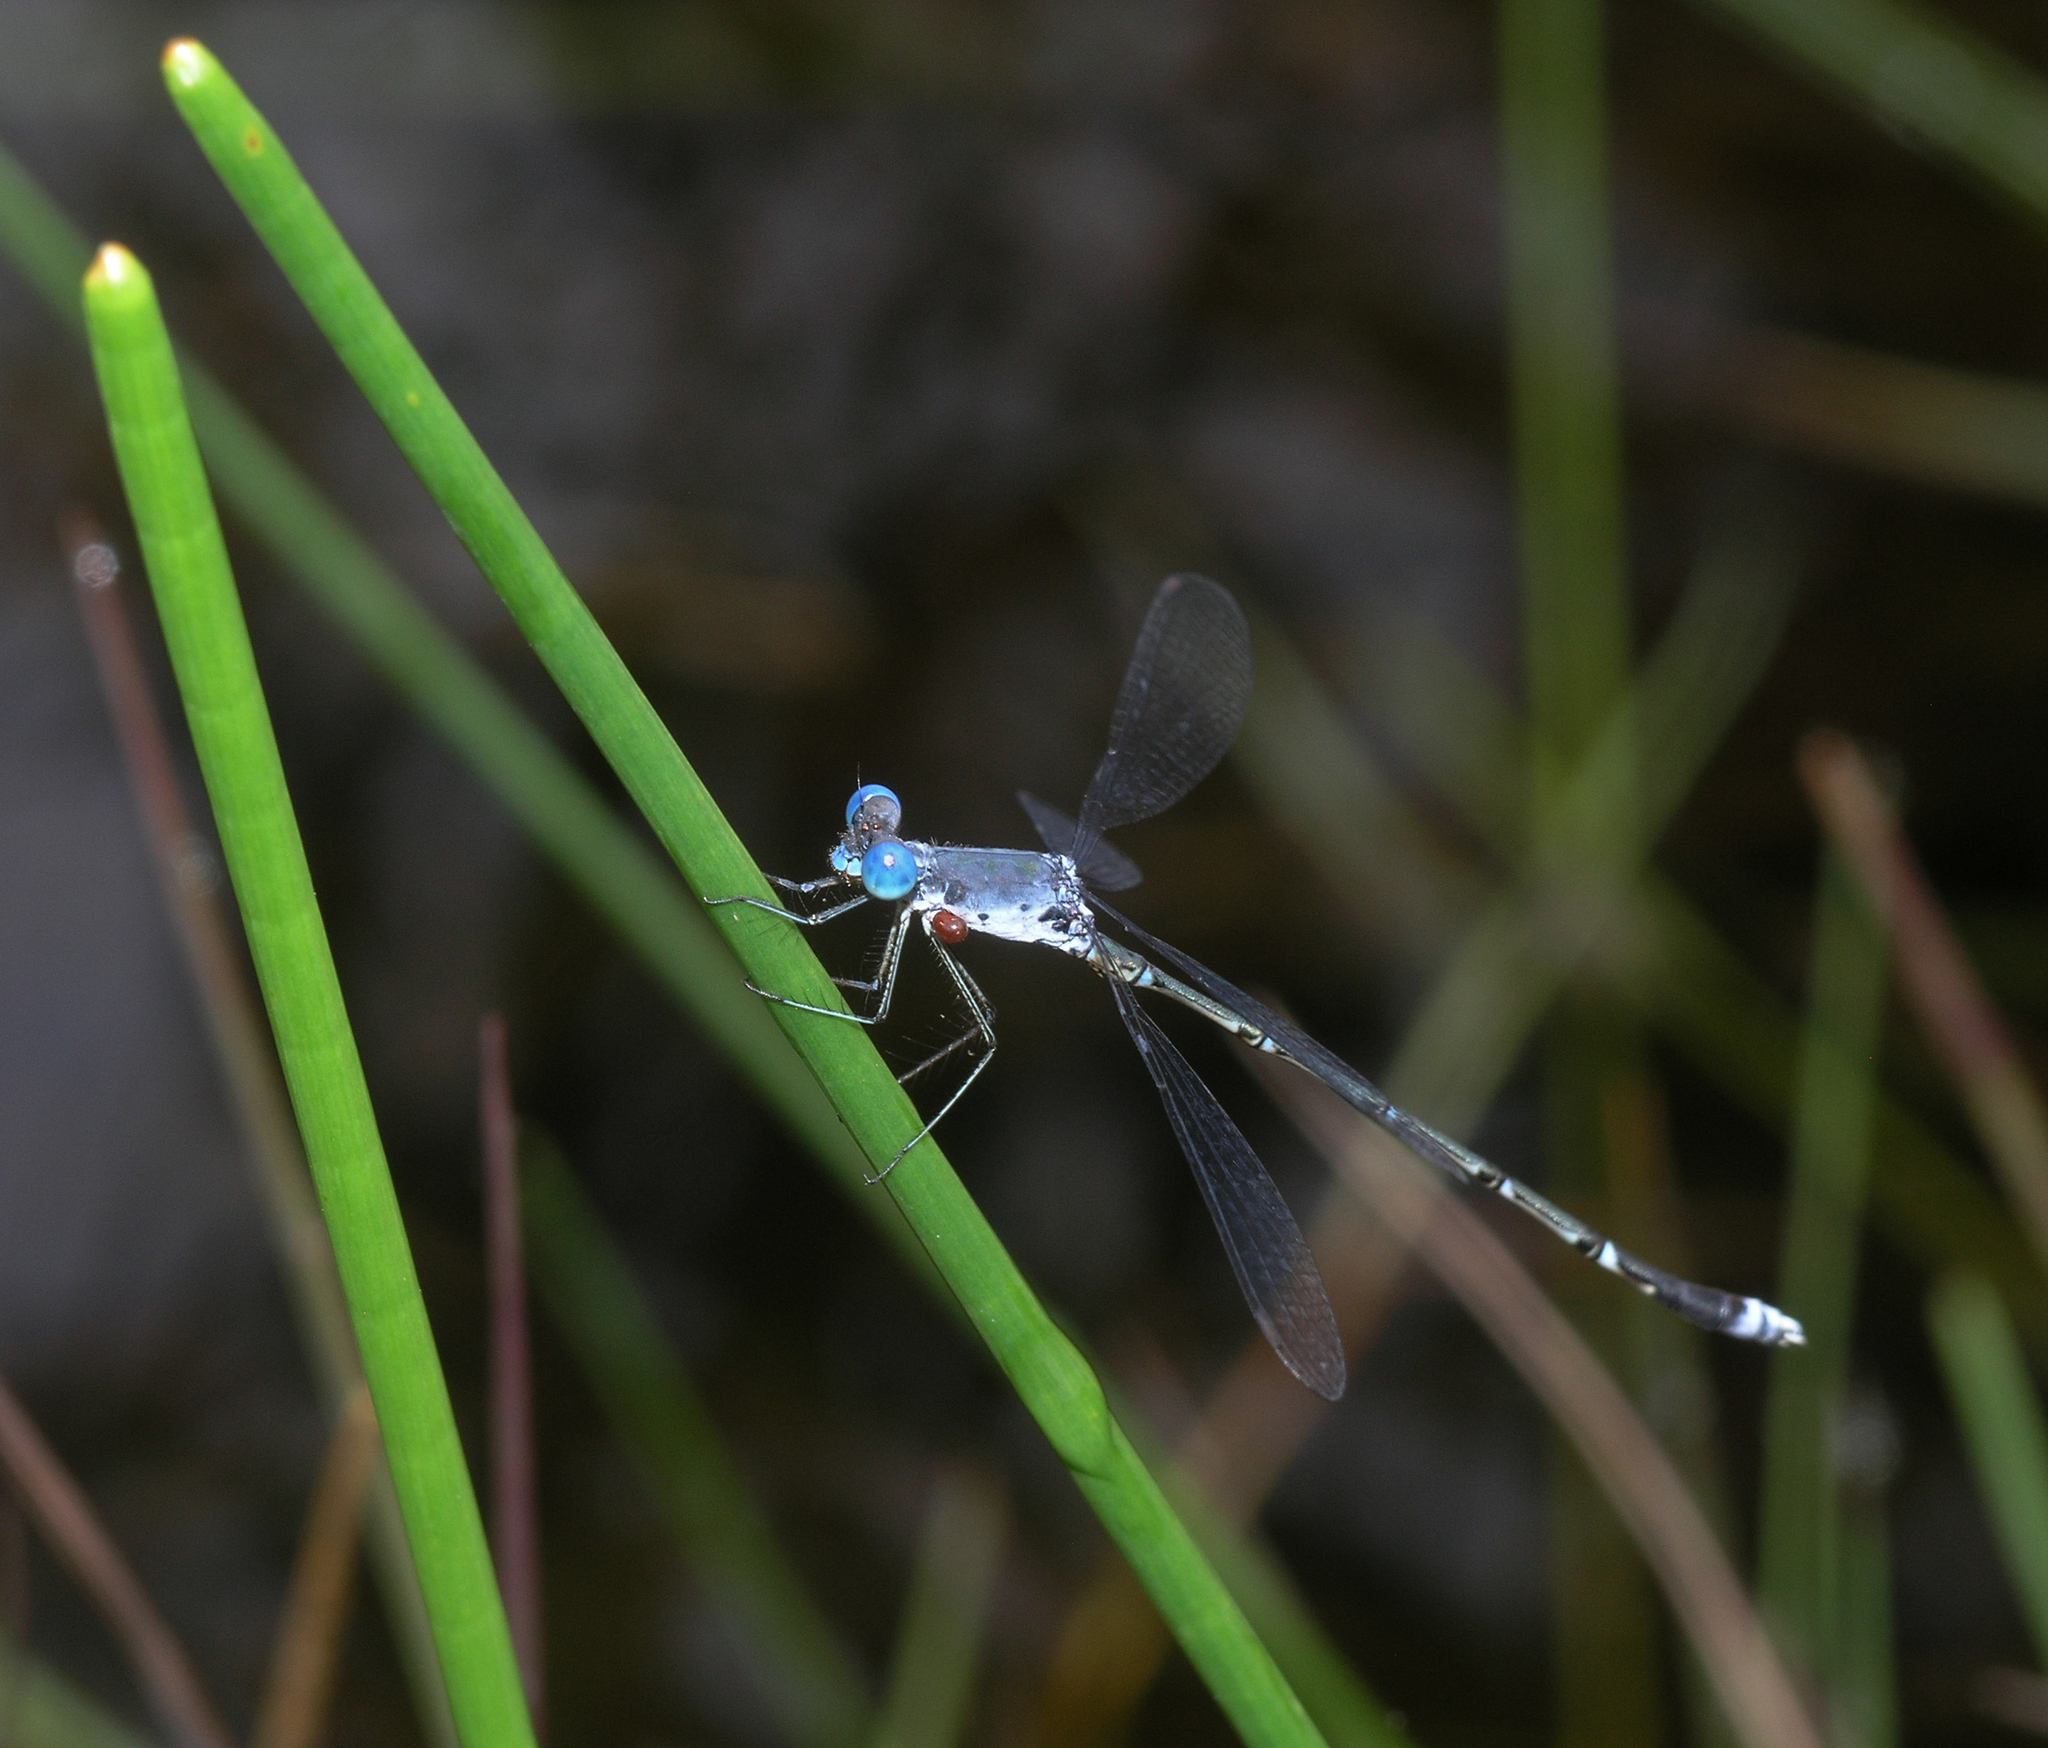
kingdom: Animalia
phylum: Arthropoda
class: Insecta
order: Odonata
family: Lestidae
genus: Lestes
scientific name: Lestes praemorsus
